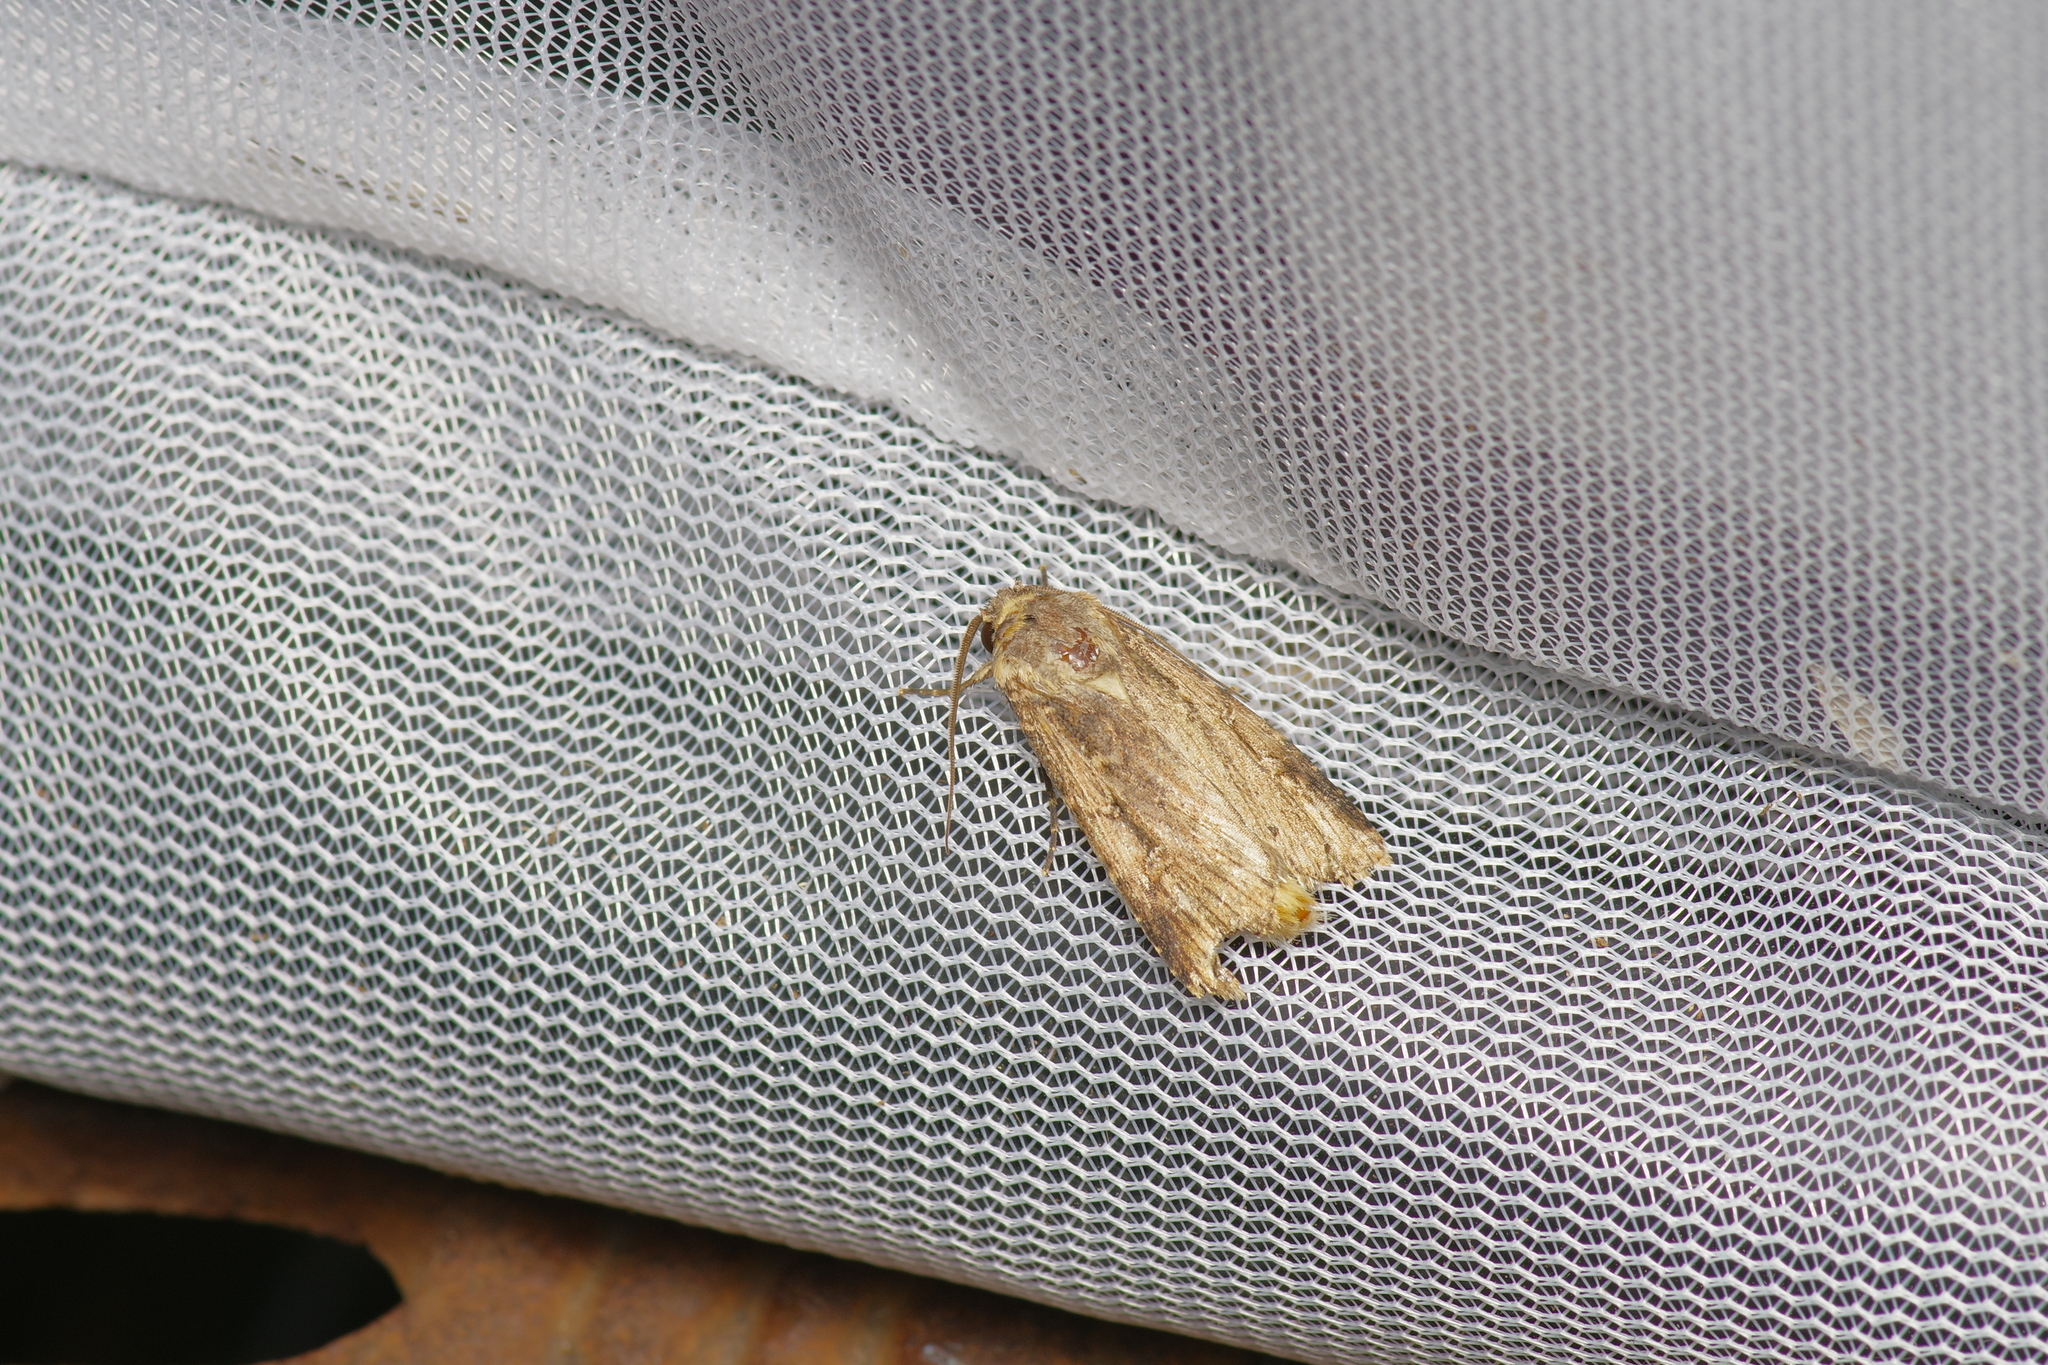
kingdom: Animalia
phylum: Arthropoda
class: Insecta
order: Lepidoptera
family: Noctuidae
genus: Feltia
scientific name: Feltia subterranea
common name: Granulate cutworm
